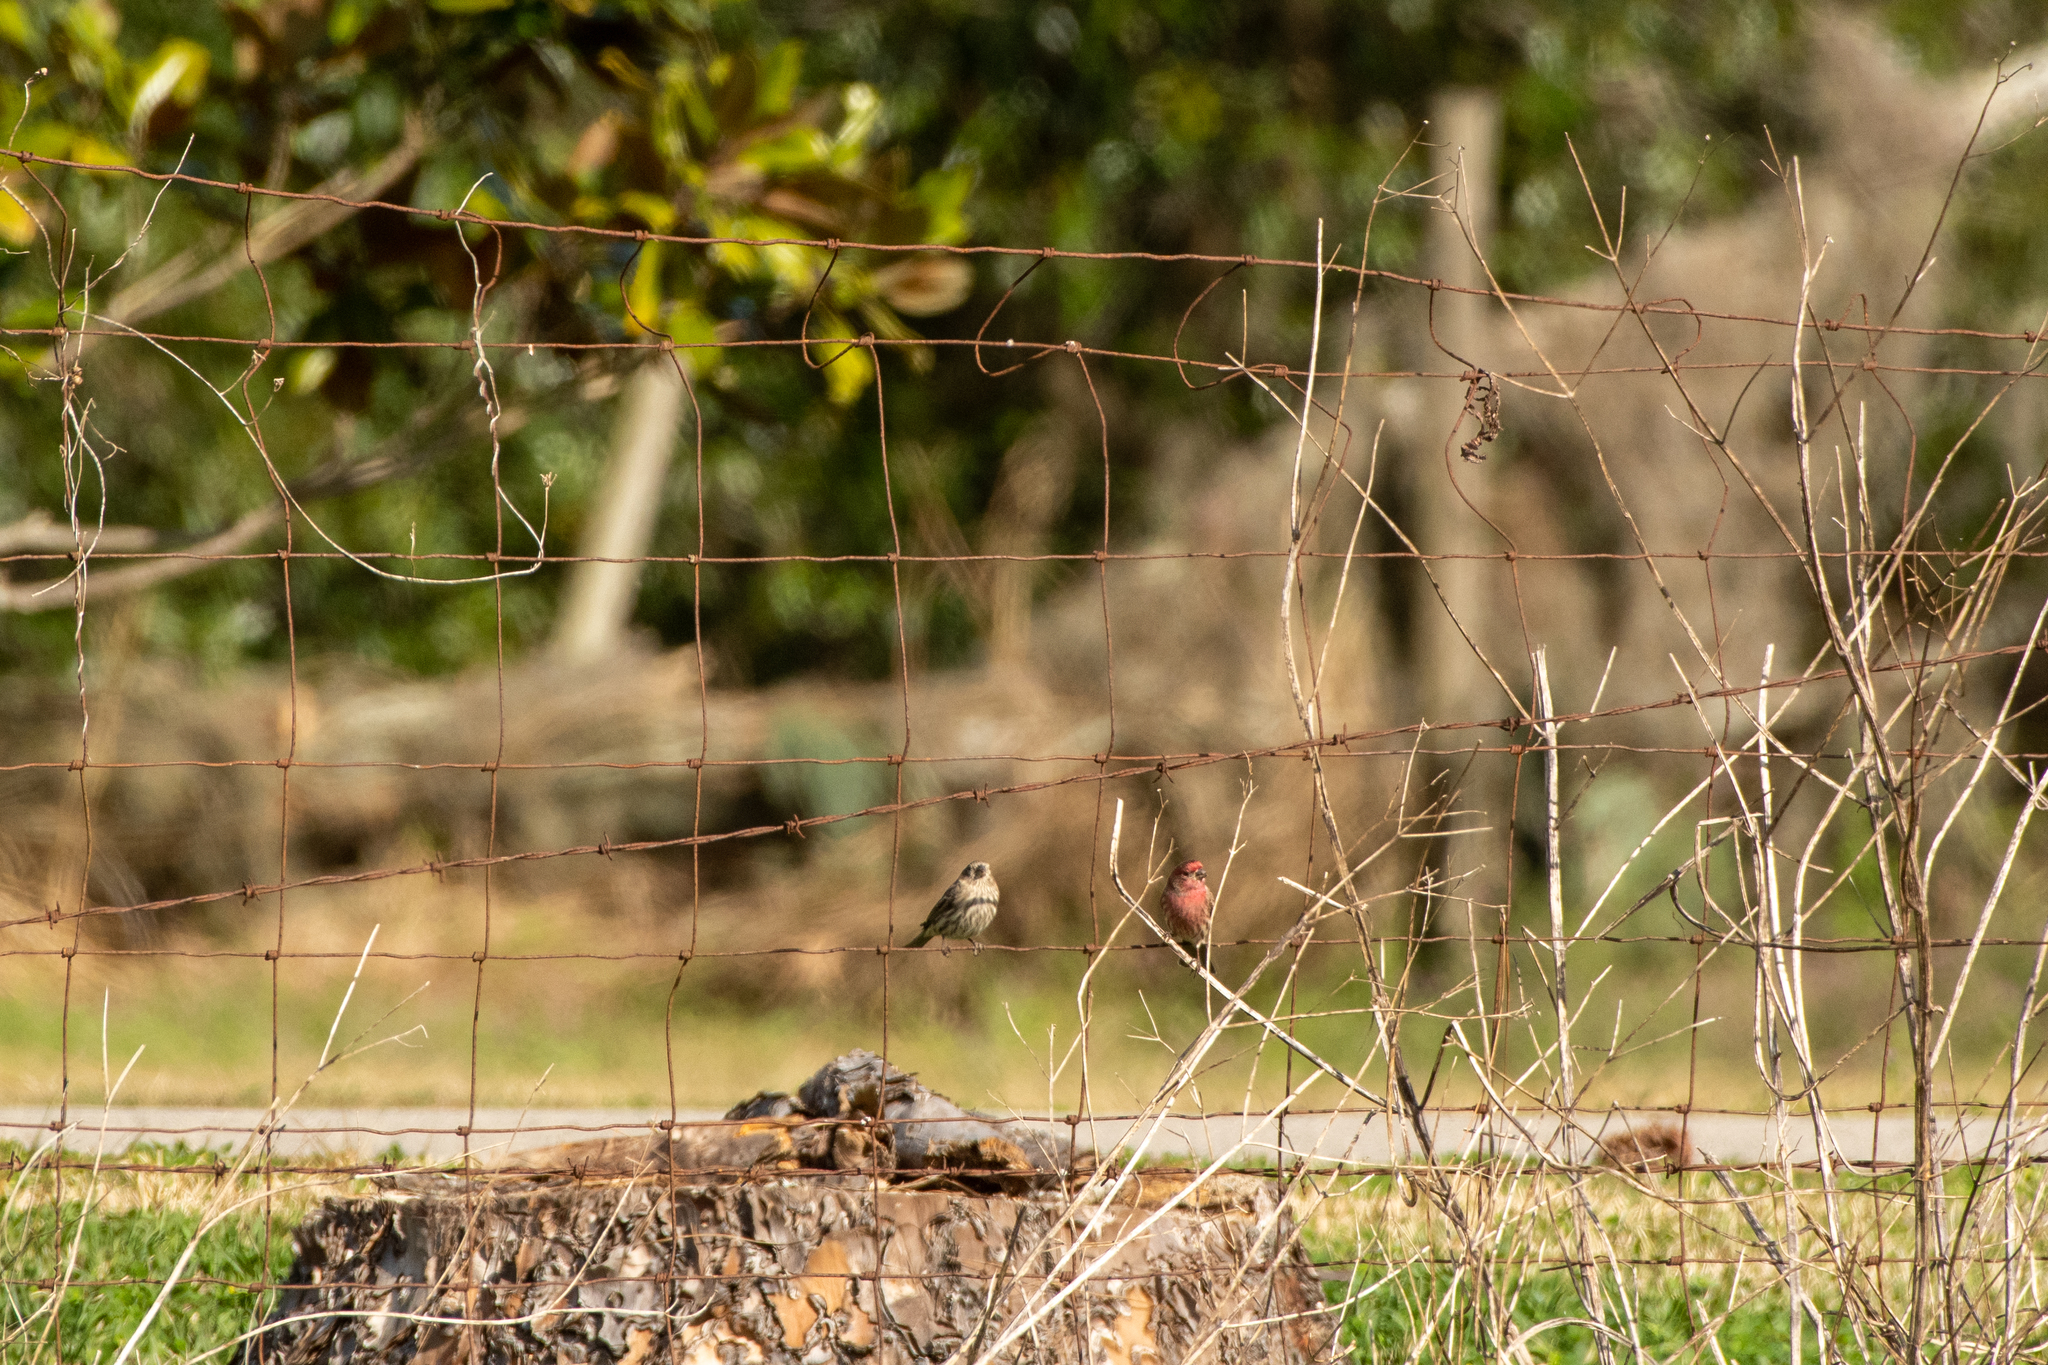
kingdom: Animalia
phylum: Chordata
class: Aves
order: Passeriformes
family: Fringillidae
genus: Haemorhous
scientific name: Haemorhous mexicanus
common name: House finch
